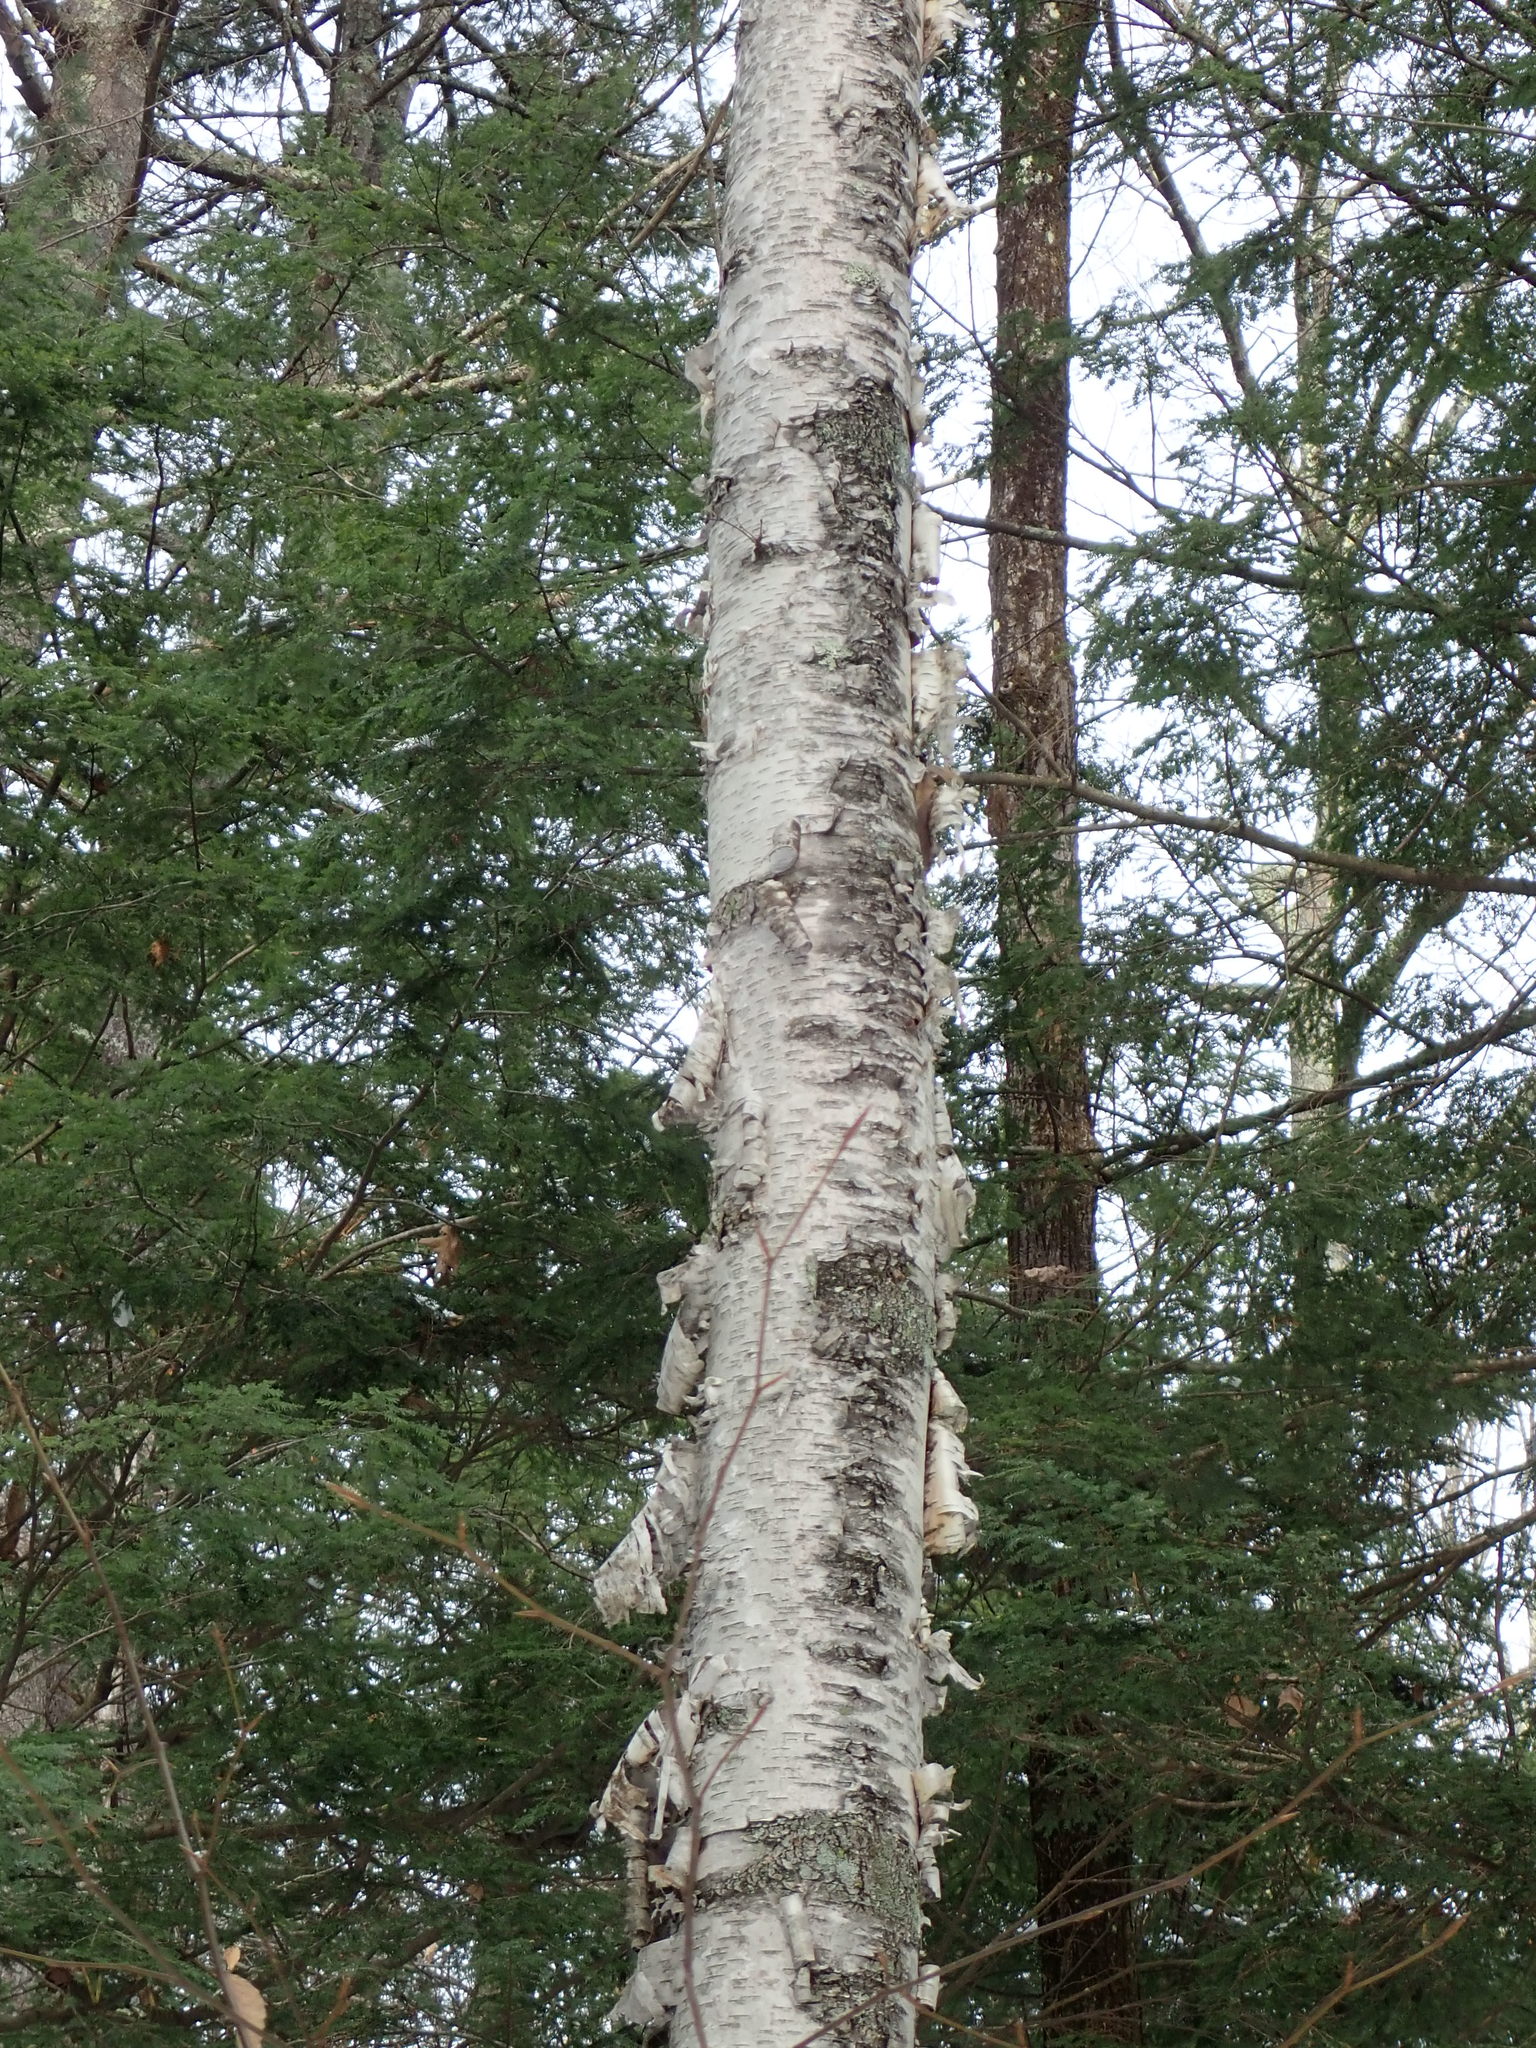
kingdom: Plantae
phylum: Tracheophyta
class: Magnoliopsida
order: Fagales
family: Betulaceae
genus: Betula
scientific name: Betula papyrifera
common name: Paper birch
